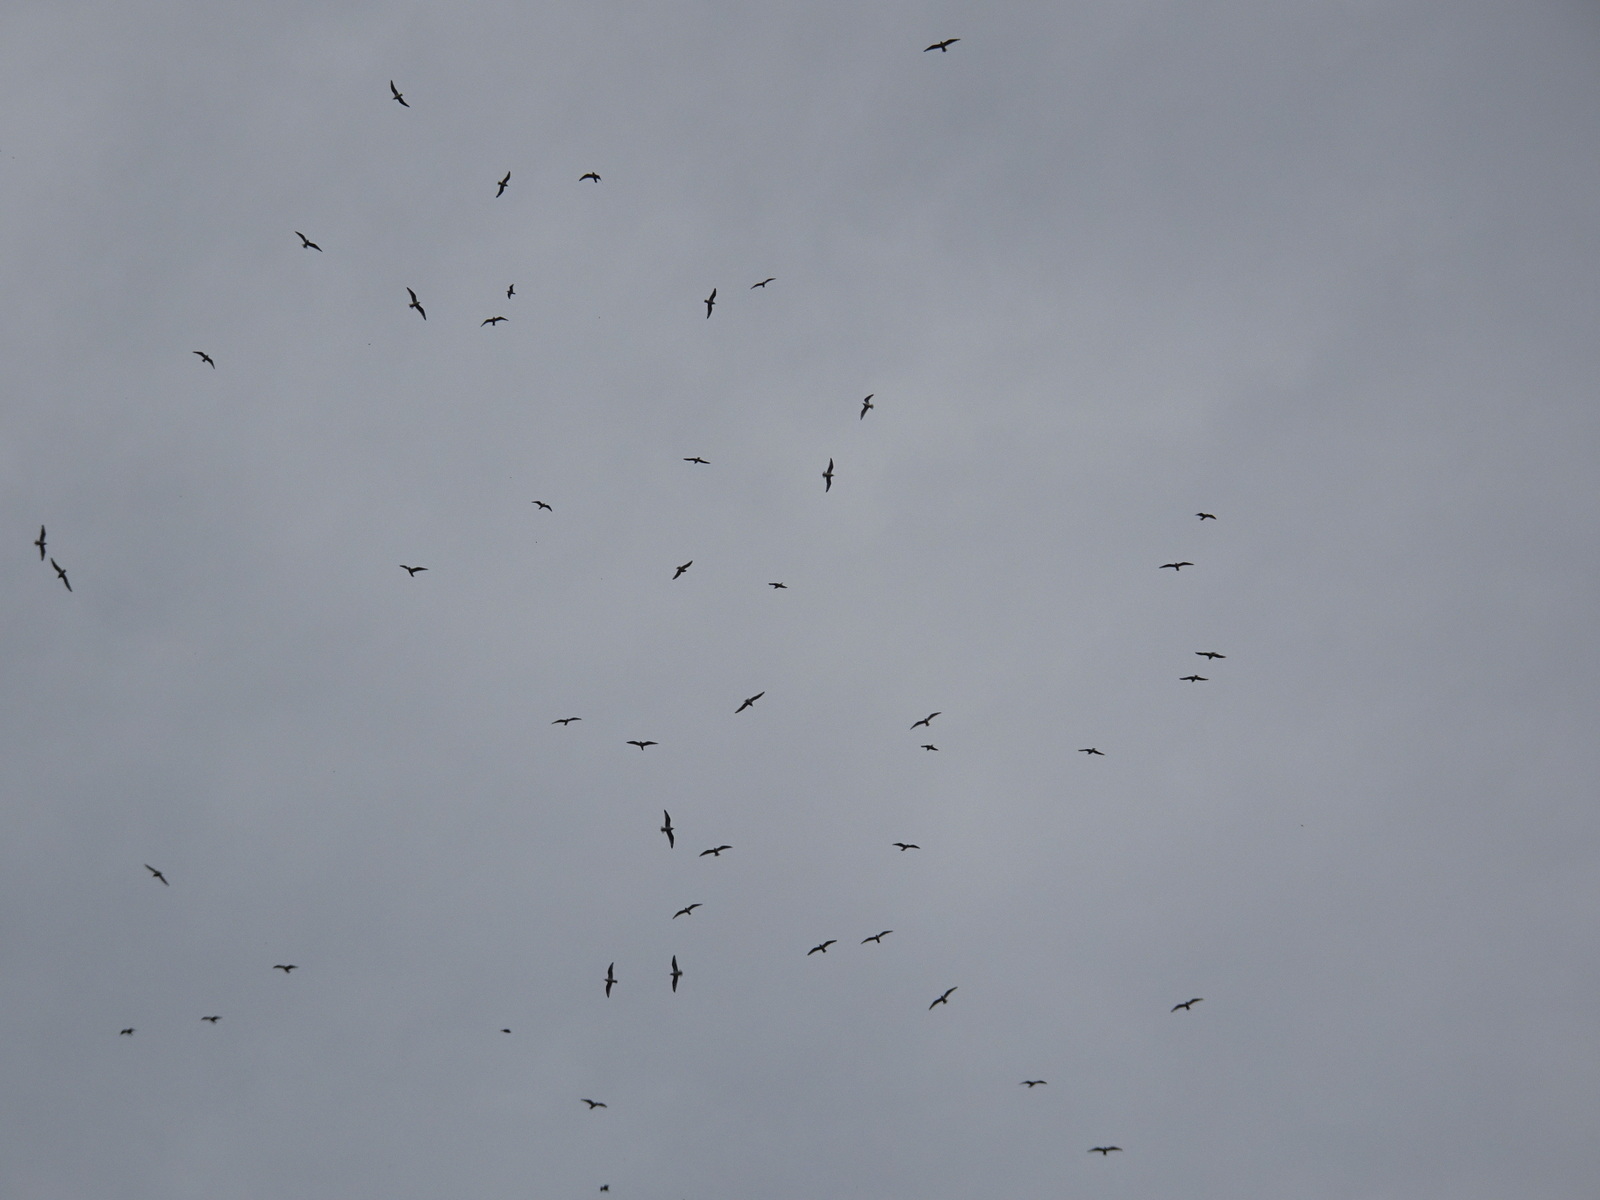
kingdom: Animalia
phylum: Chordata
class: Aves
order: Charadriiformes
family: Laridae
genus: Leucophaeus
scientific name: Leucophaeus pipixcan
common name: Franklin's gull
